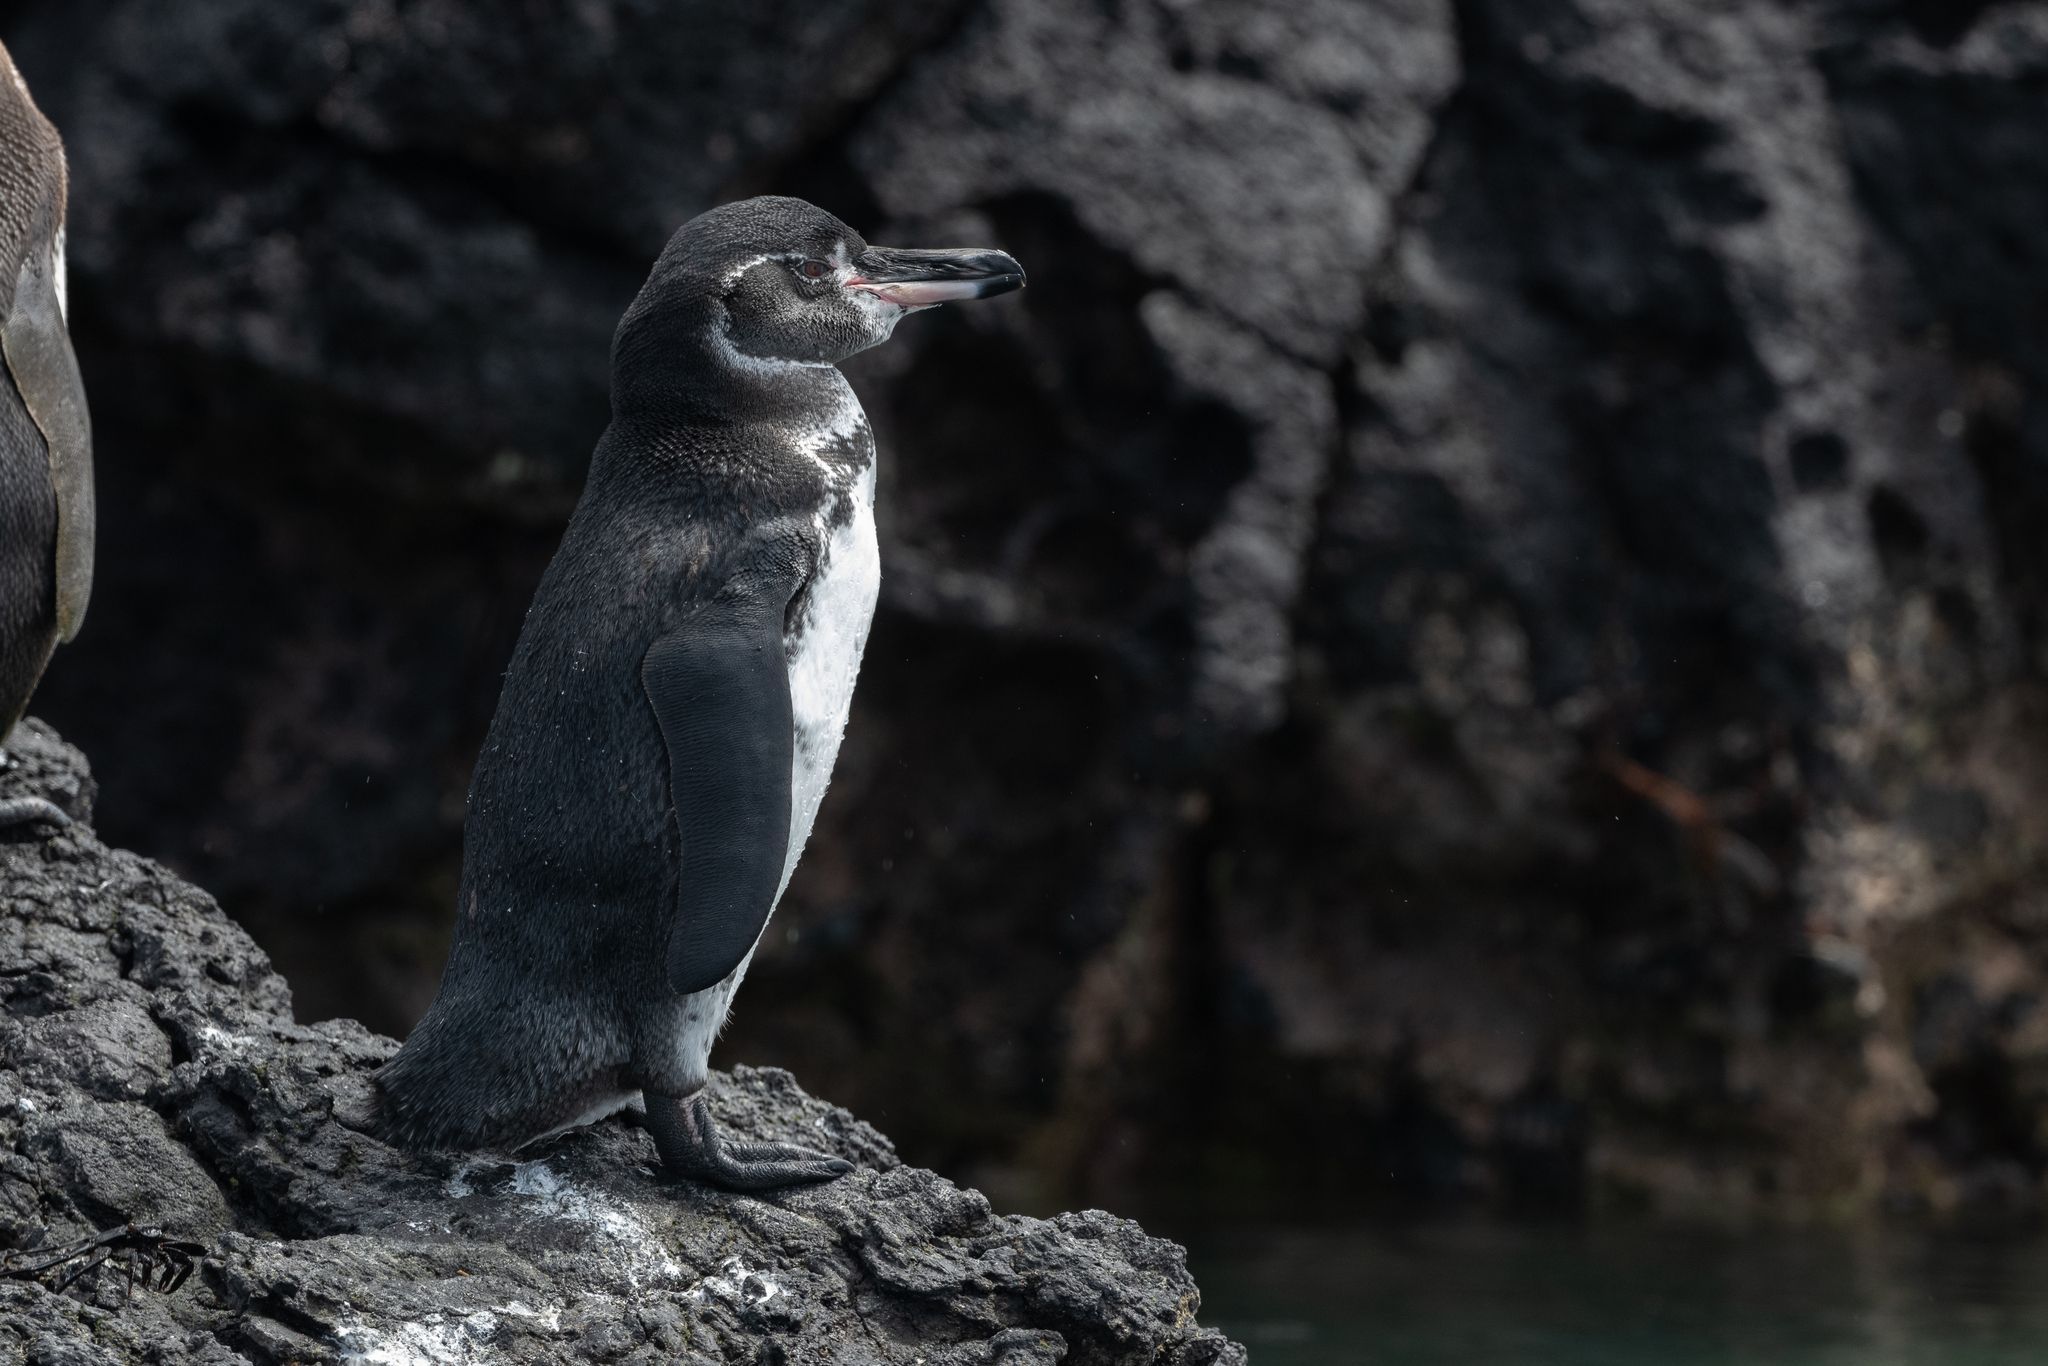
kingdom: Animalia
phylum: Chordata
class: Aves
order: Sphenisciformes
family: Spheniscidae
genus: Spheniscus
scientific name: Spheniscus mendiculus
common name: Galapagos penguin
